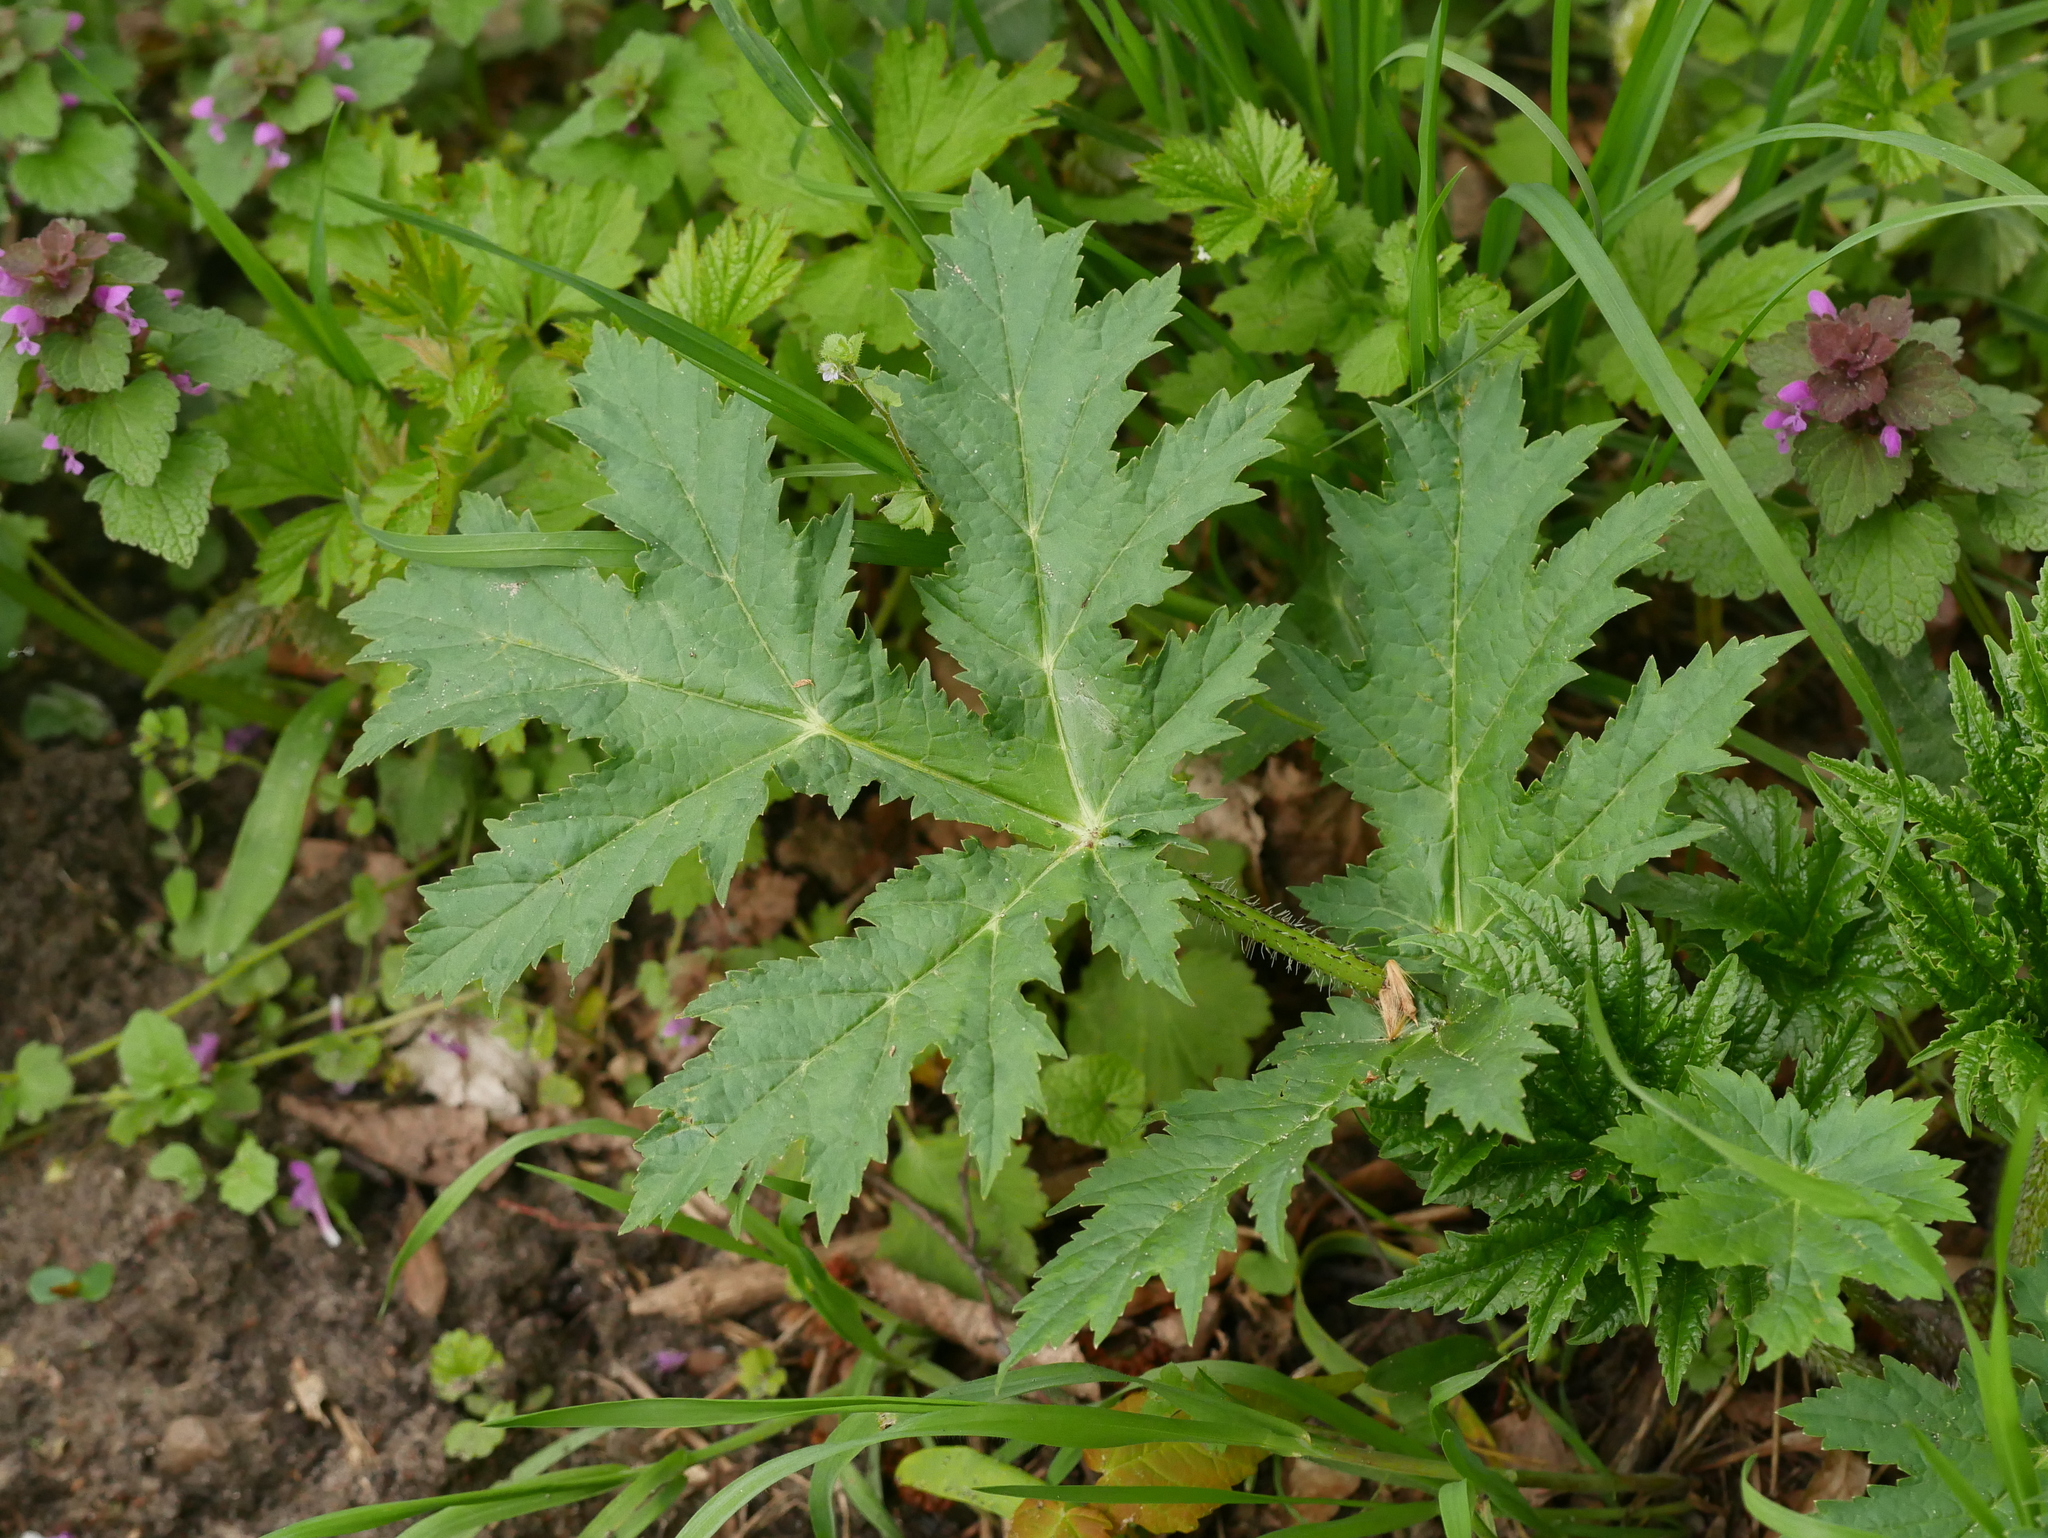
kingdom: Plantae
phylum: Tracheophyta
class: Magnoliopsida
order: Apiales
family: Apiaceae
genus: Heracleum
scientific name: Heracleum mantegazzianum
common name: Giant hogweed
